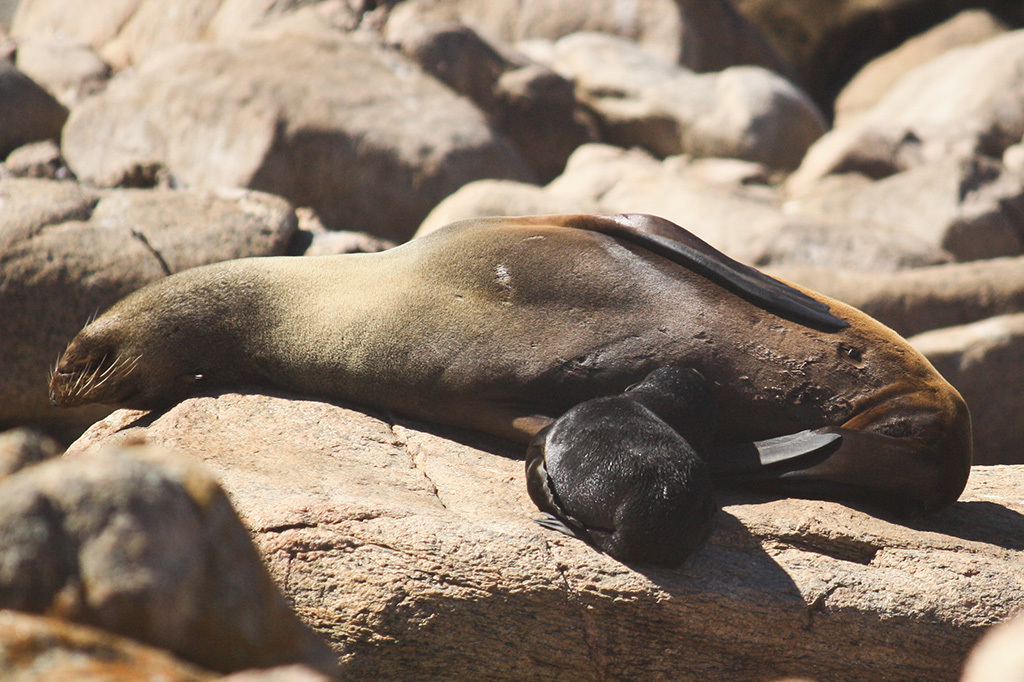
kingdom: Animalia
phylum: Chordata
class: Mammalia
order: Carnivora
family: Otariidae
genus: Arctocephalus
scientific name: Arctocephalus pusillus
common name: Brown fur seal
